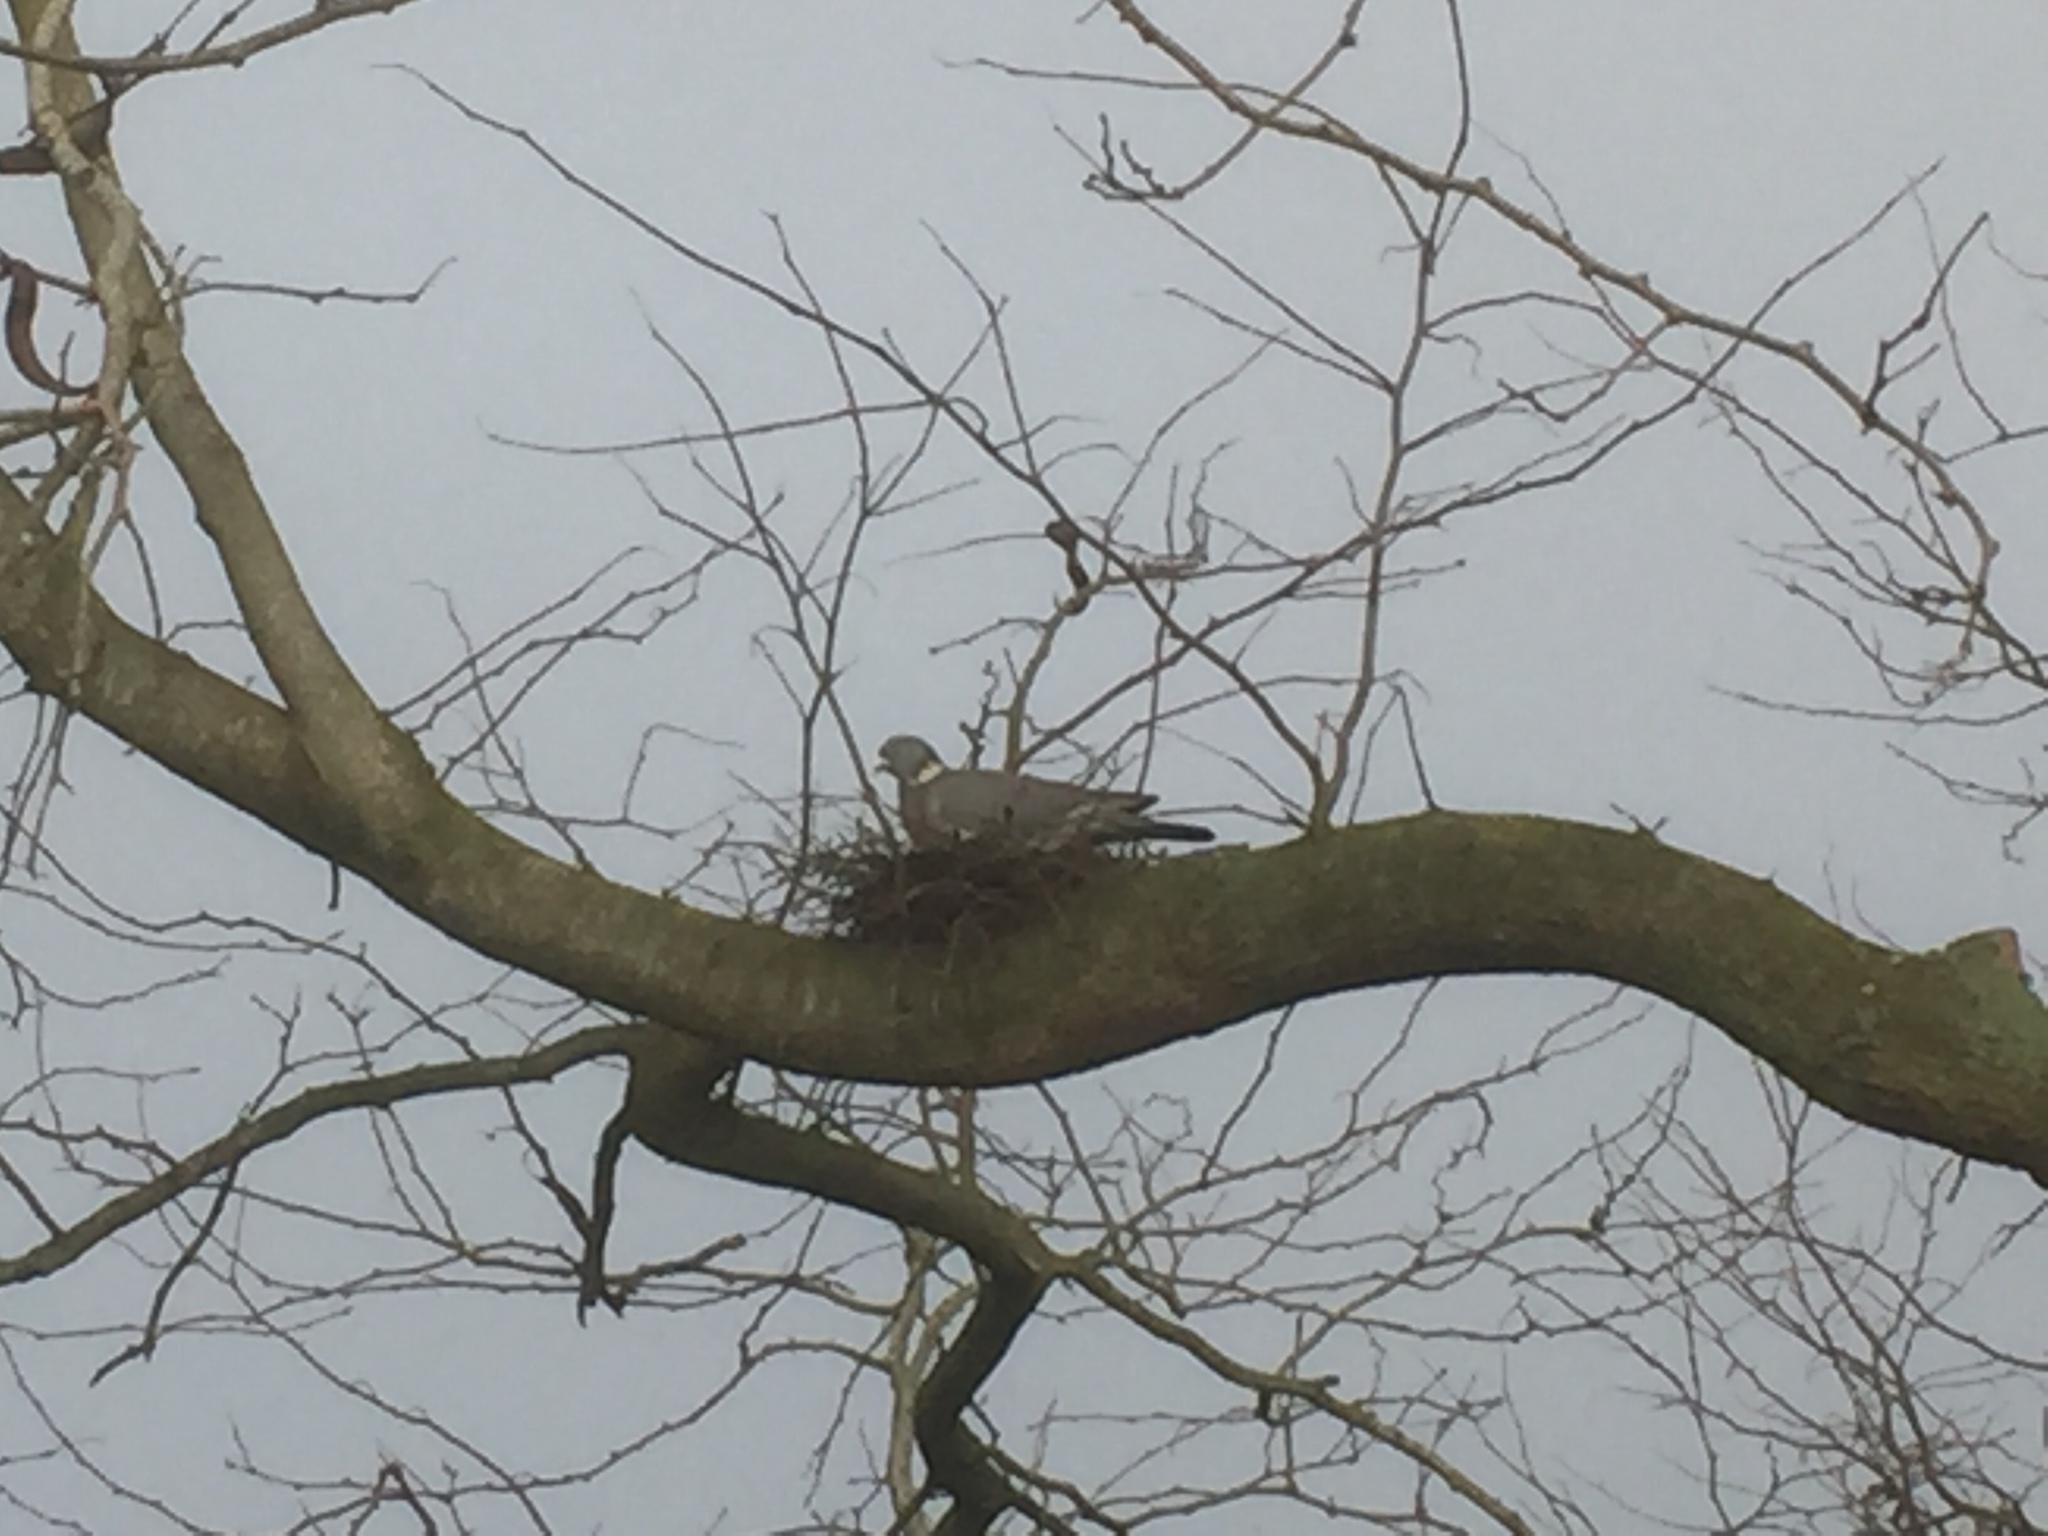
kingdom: Animalia
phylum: Chordata
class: Aves
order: Columbiformes
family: Columbidae
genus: Columba
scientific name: Columba palumbus
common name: Common wood pigeon
